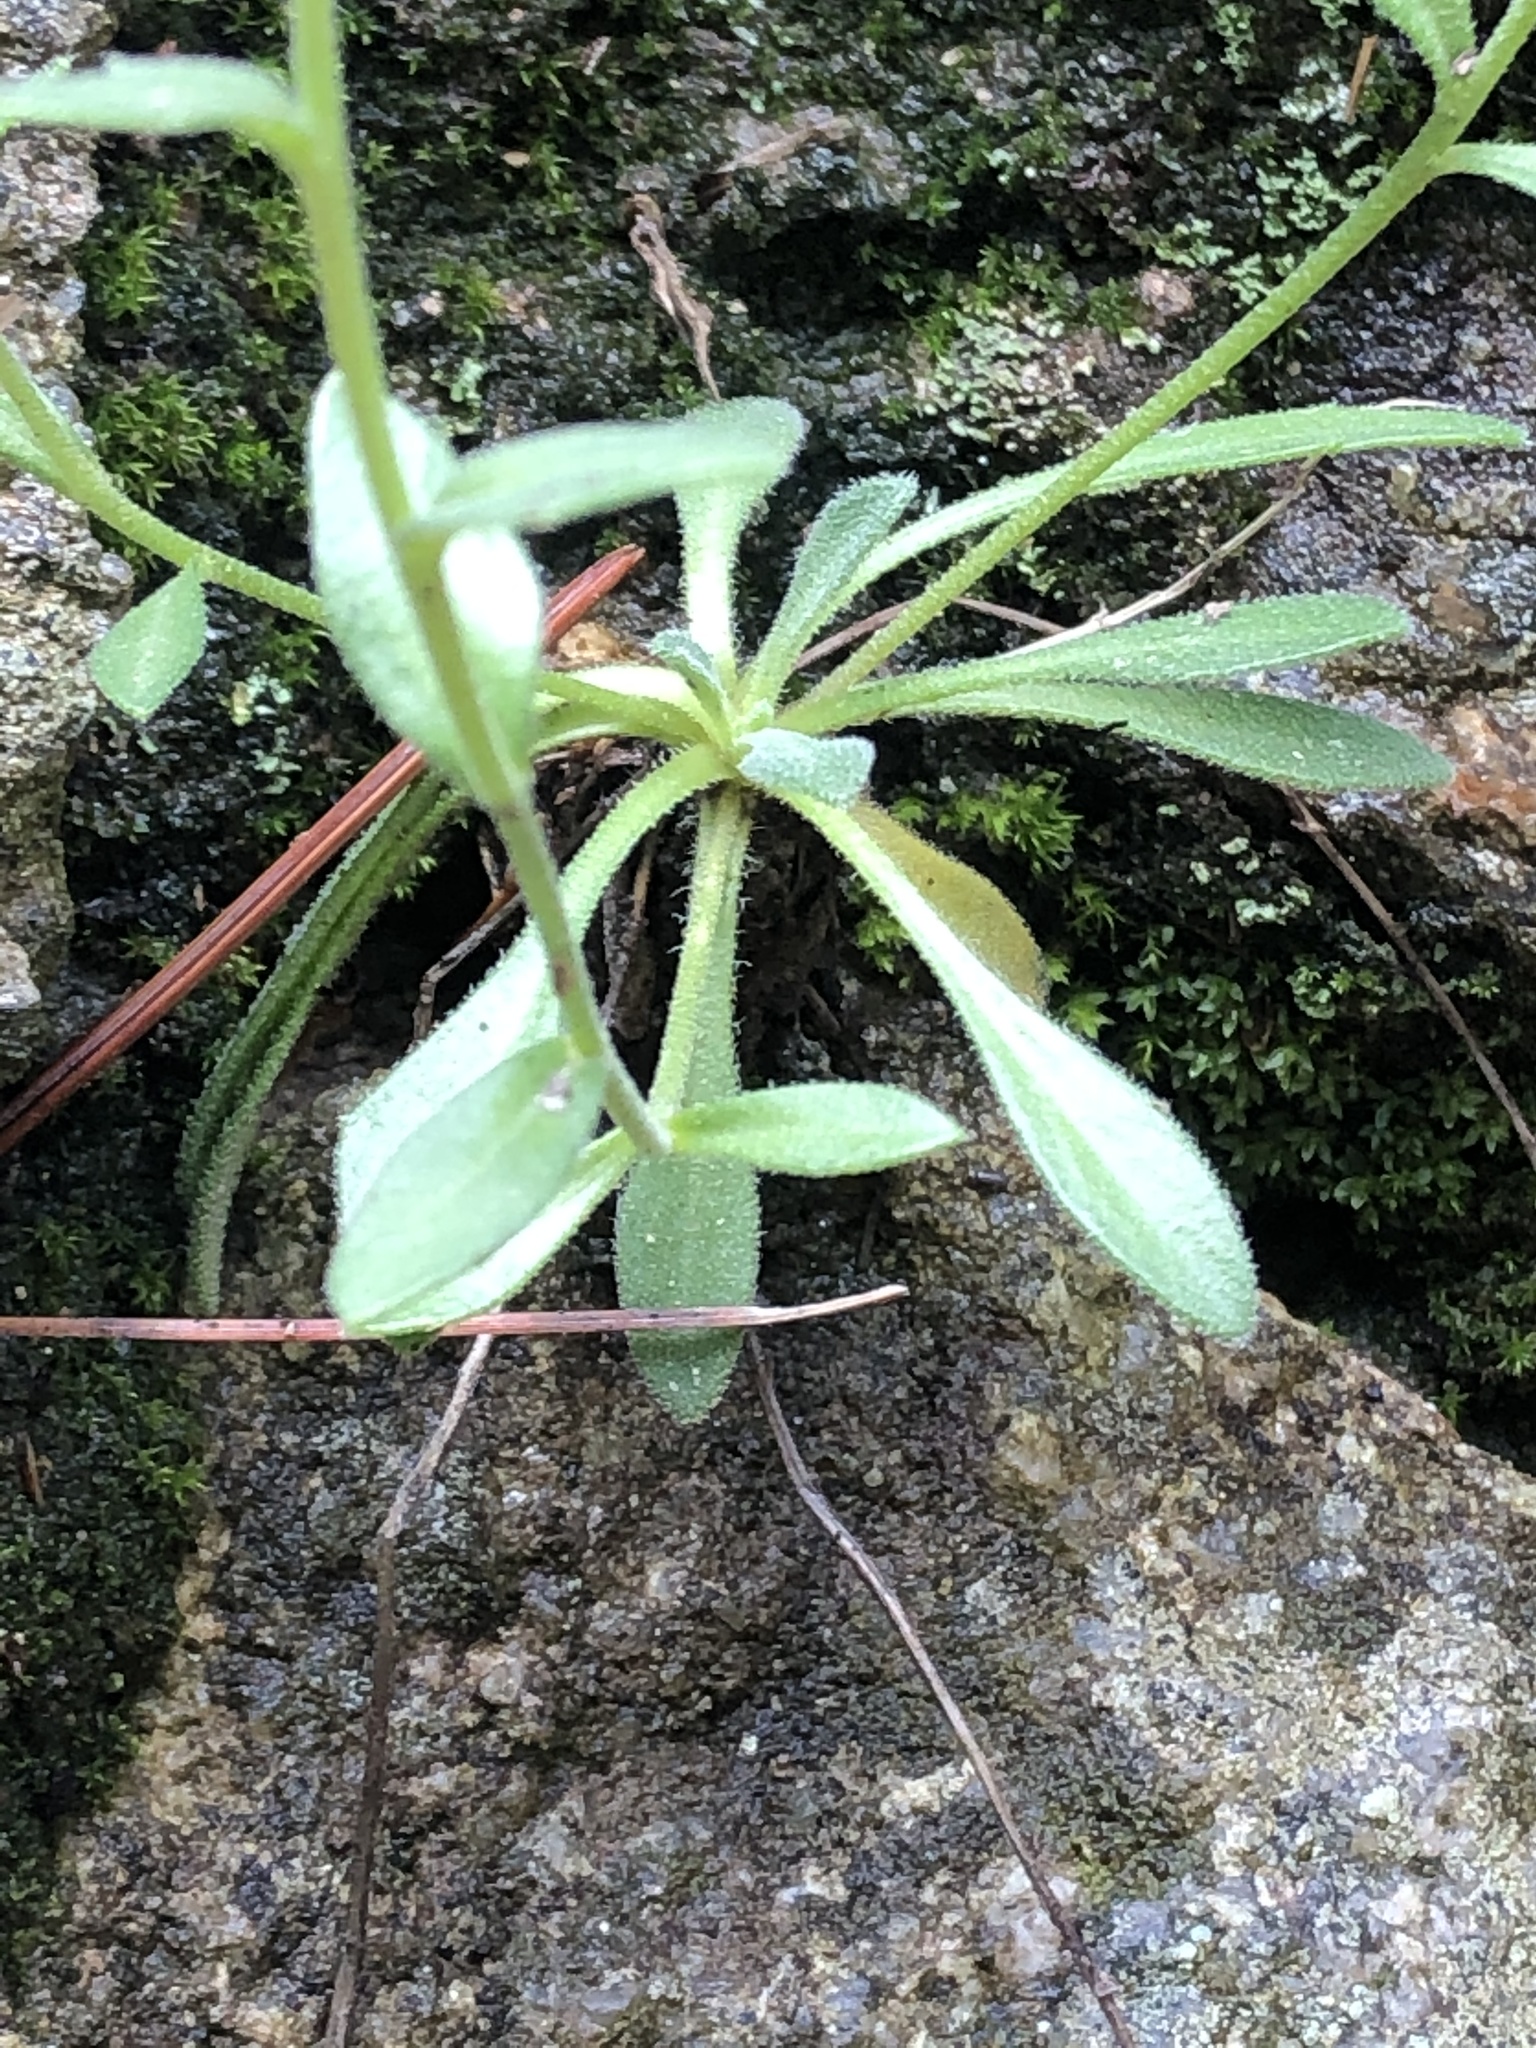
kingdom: Plantae
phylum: Tracheophyta
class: Magnoliopsida
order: Brassicales
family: Brassicaceae
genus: Draba
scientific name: Draba petrophila
